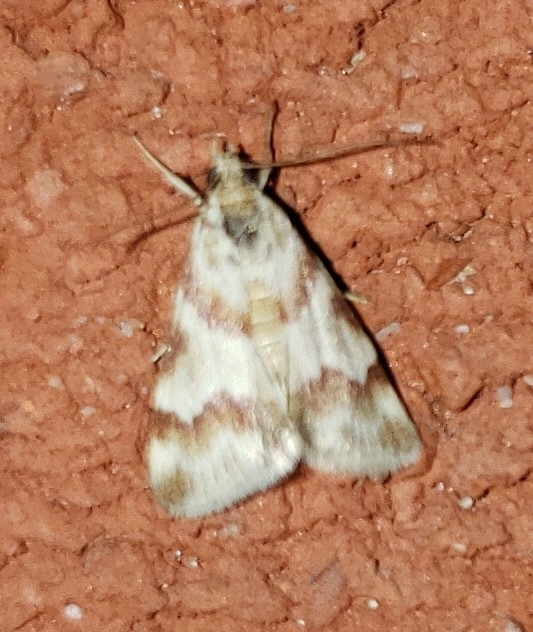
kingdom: Animalia
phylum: Arthropoda
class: Insecta
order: Lepidoptera
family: Crambidae
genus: Noctuelia
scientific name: Noctuelia Mimoschinia rufofascialis
